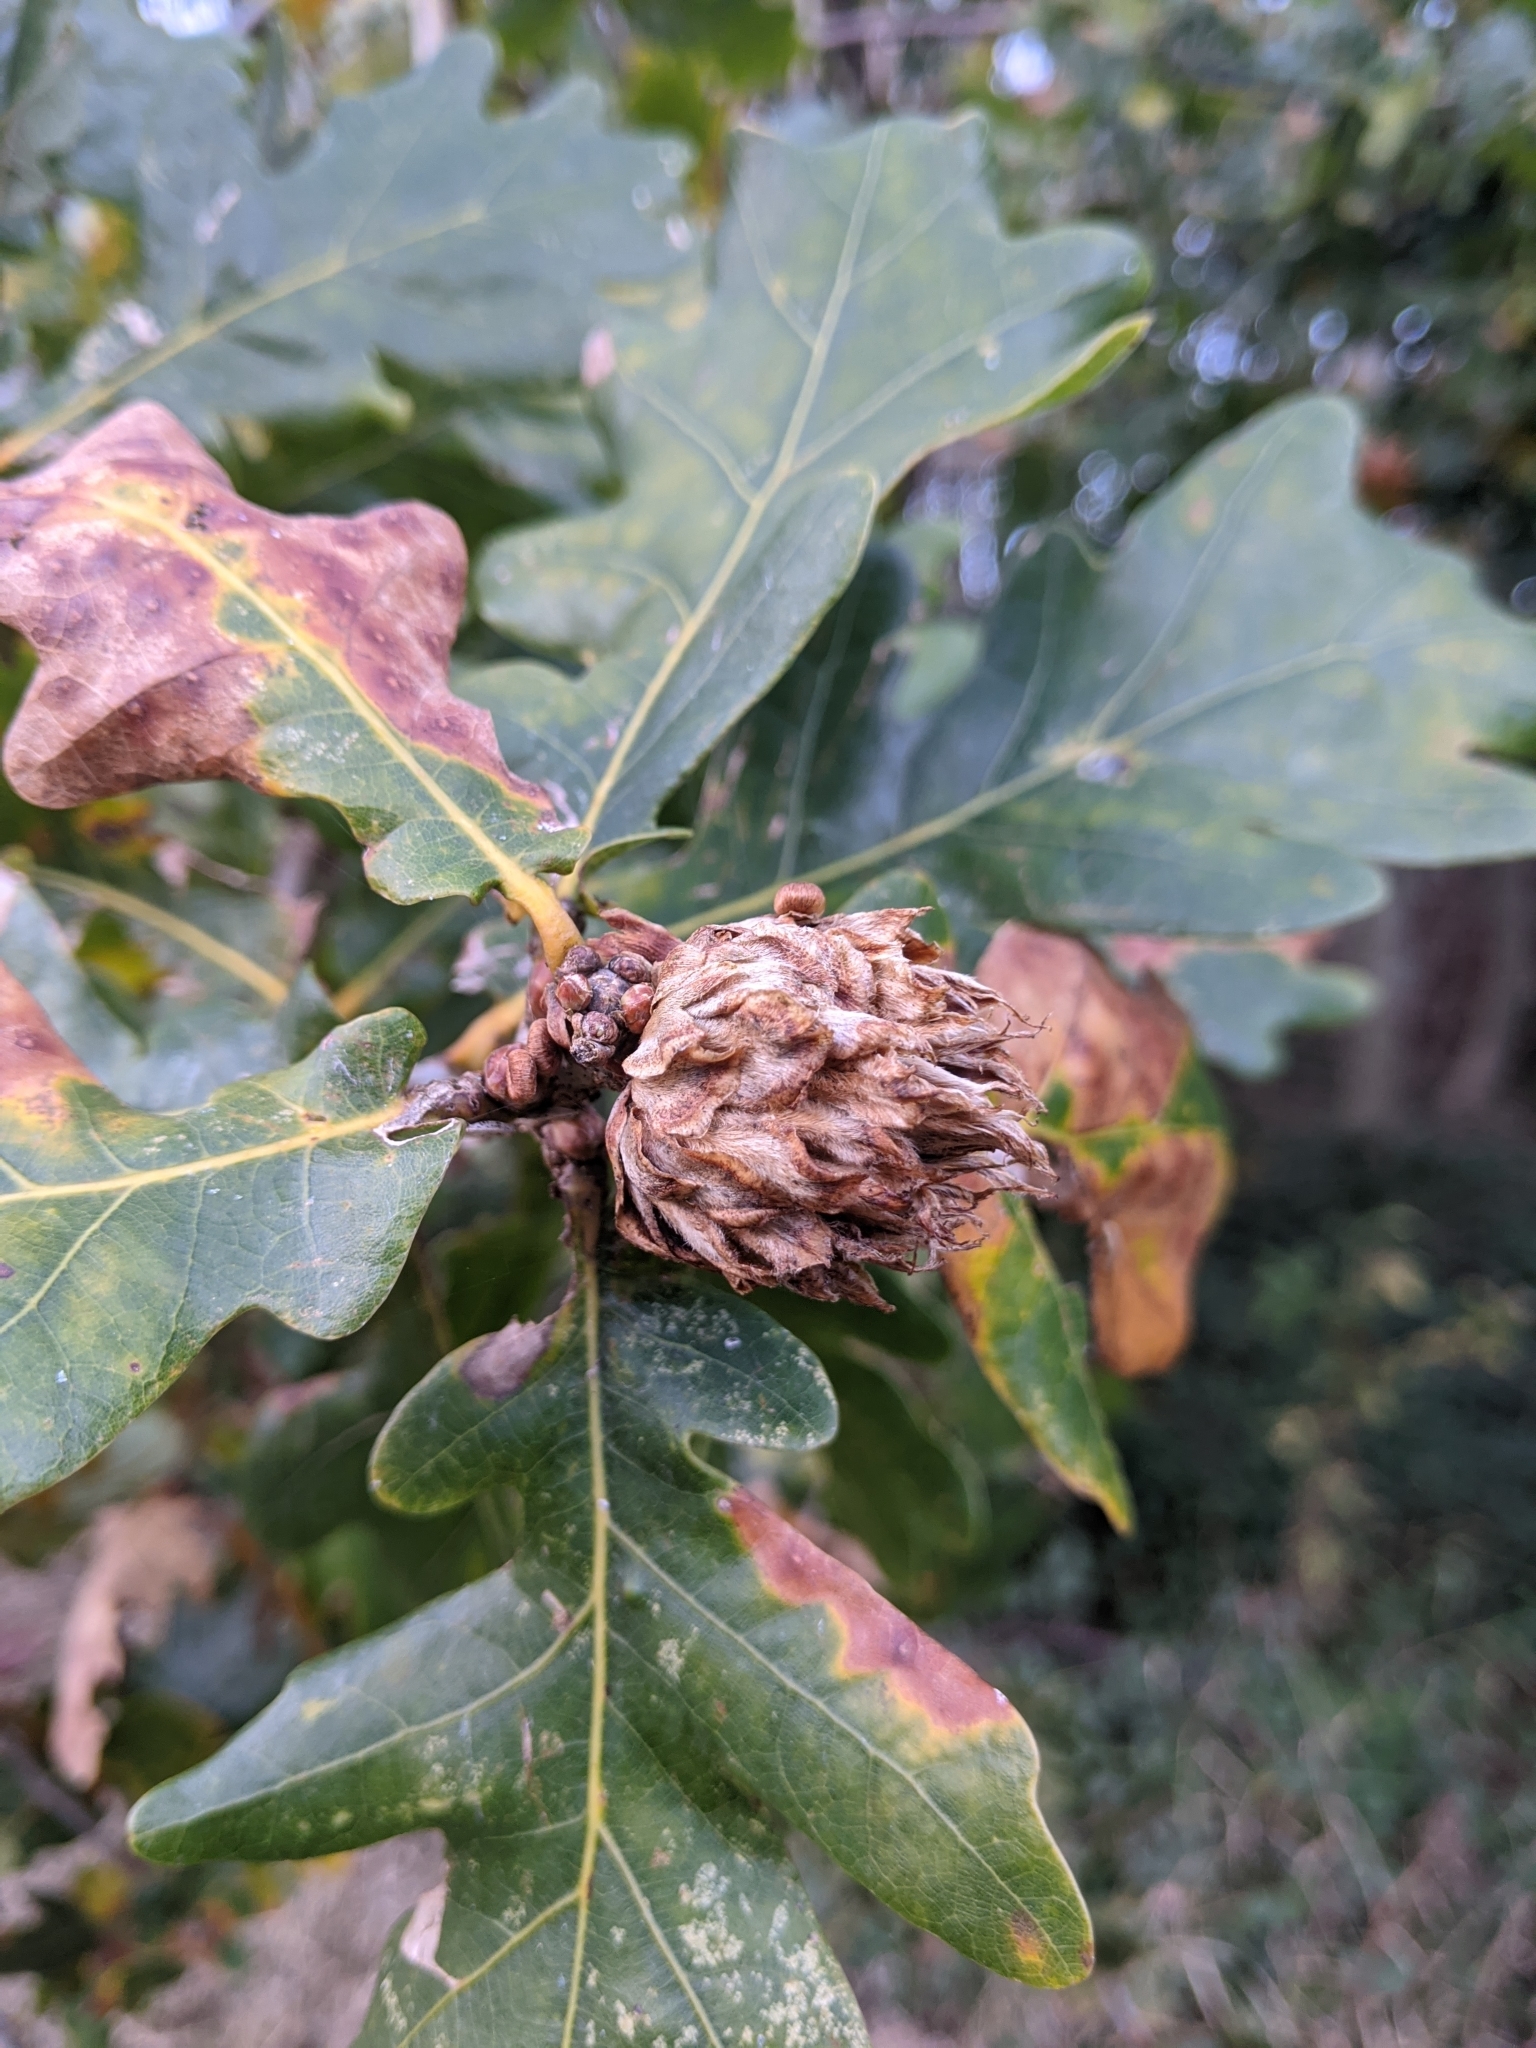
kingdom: Animalia
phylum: Arthropoda
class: Insecta
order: Hymenoptera
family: Cynipidae
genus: Andricus
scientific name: Andricus foecundatrix
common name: Artichoke gall
